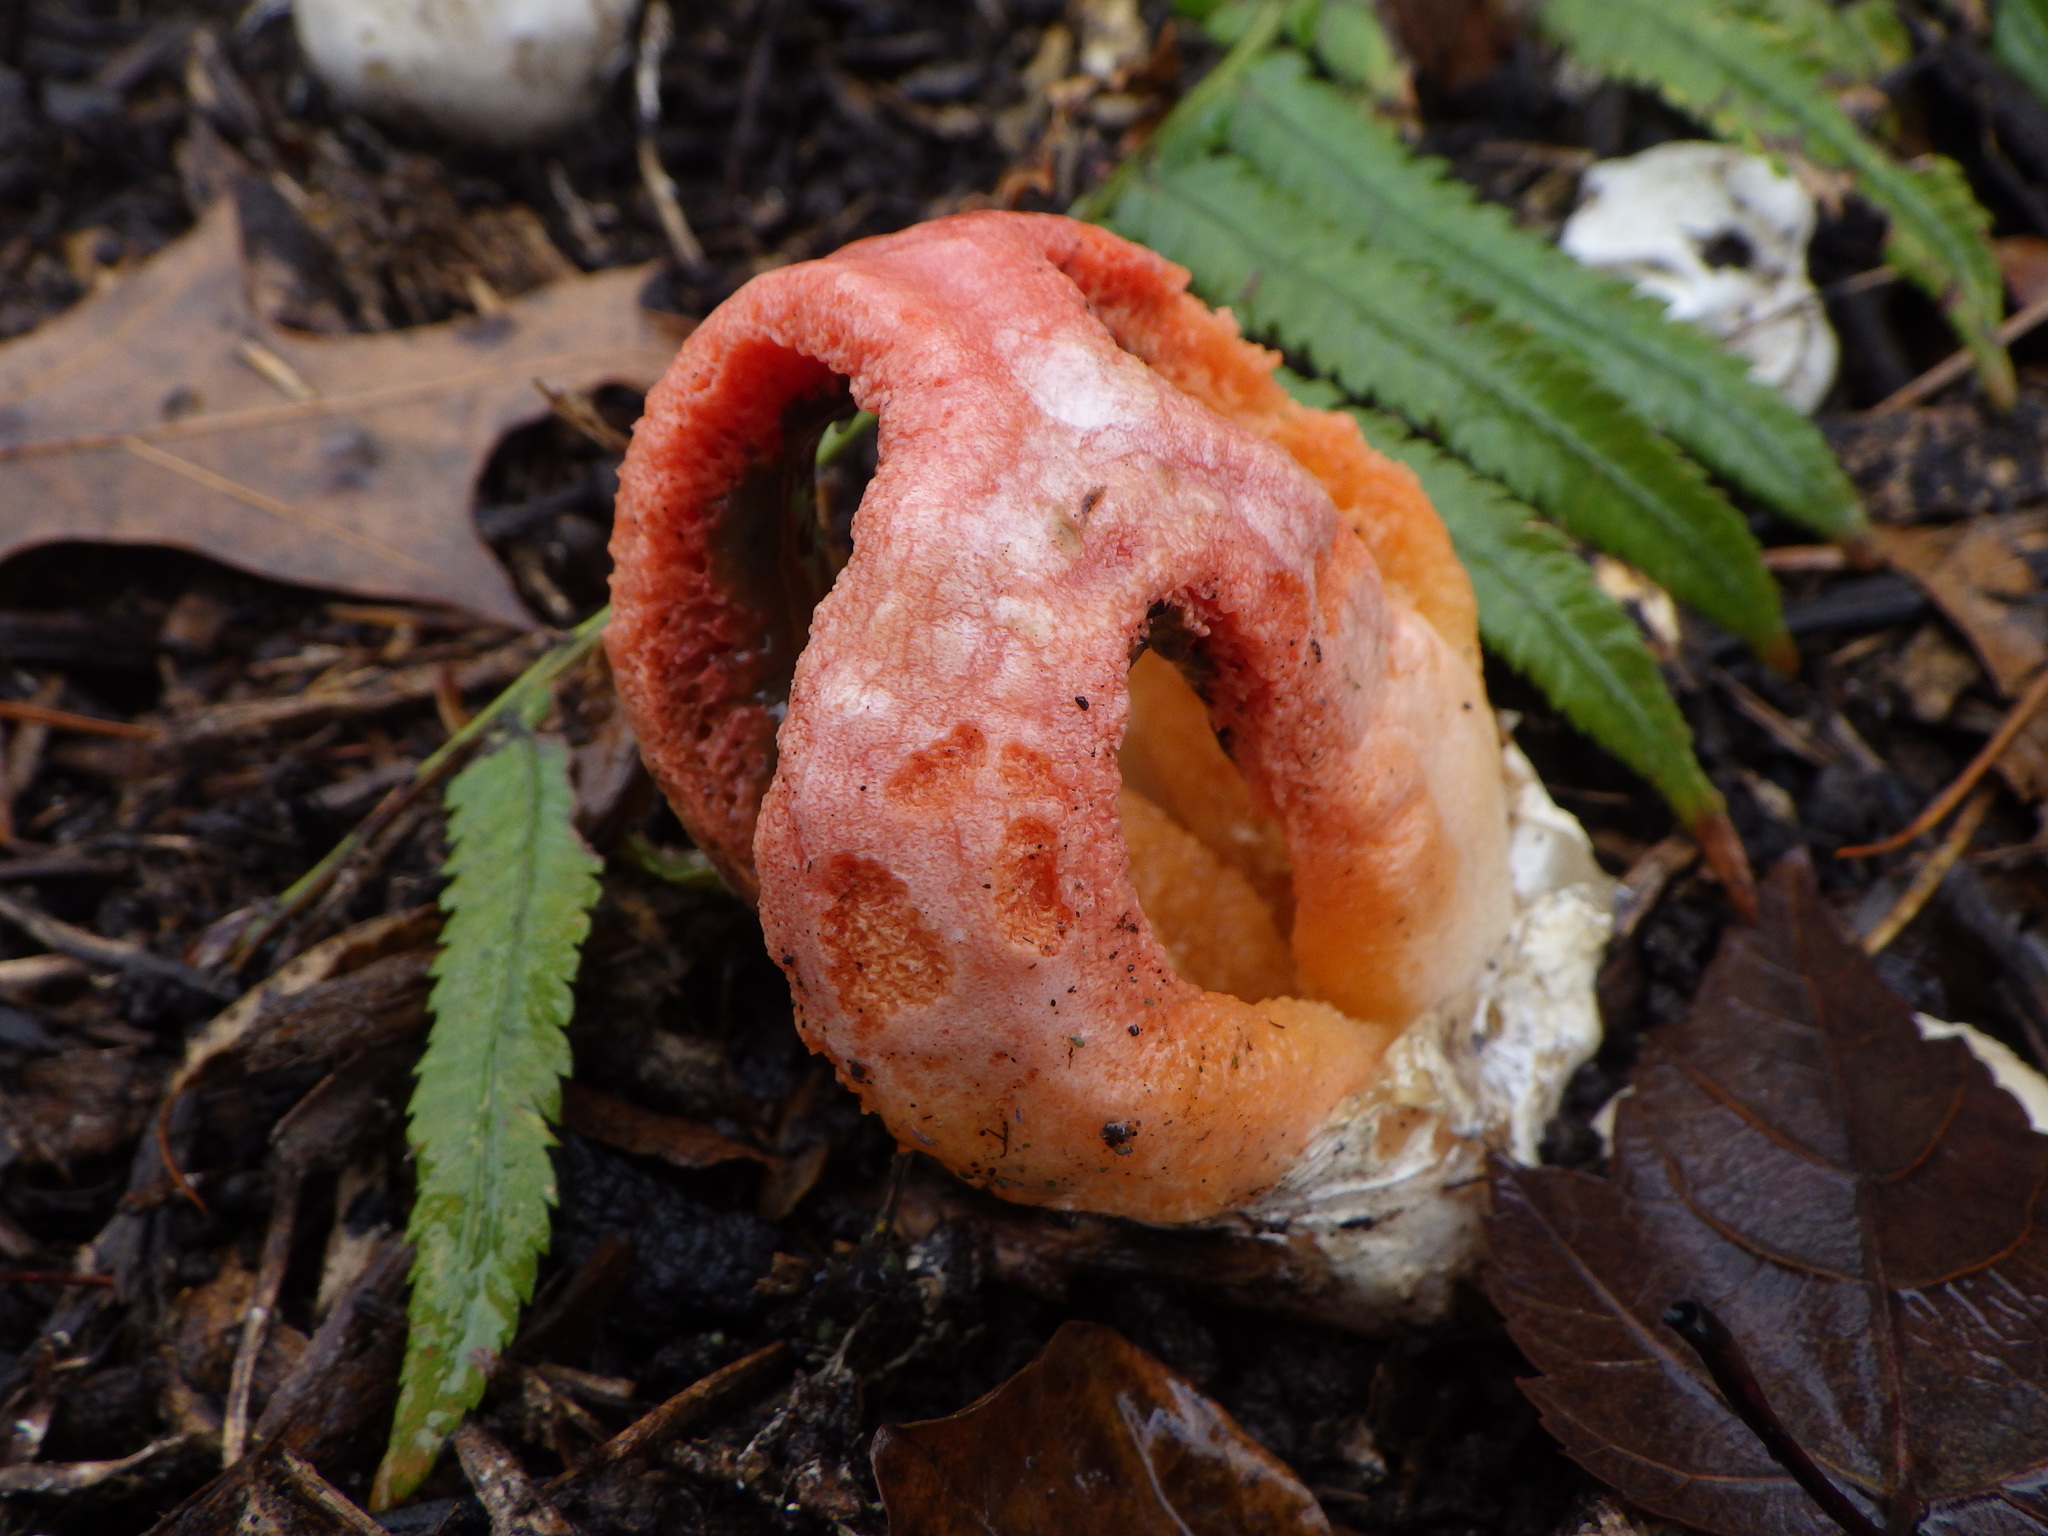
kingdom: Fungi
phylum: Basidiomycota
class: Agaricomycetes
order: Phallales
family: Phallaceae
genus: Clathrus
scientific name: Clathrus columnatus
